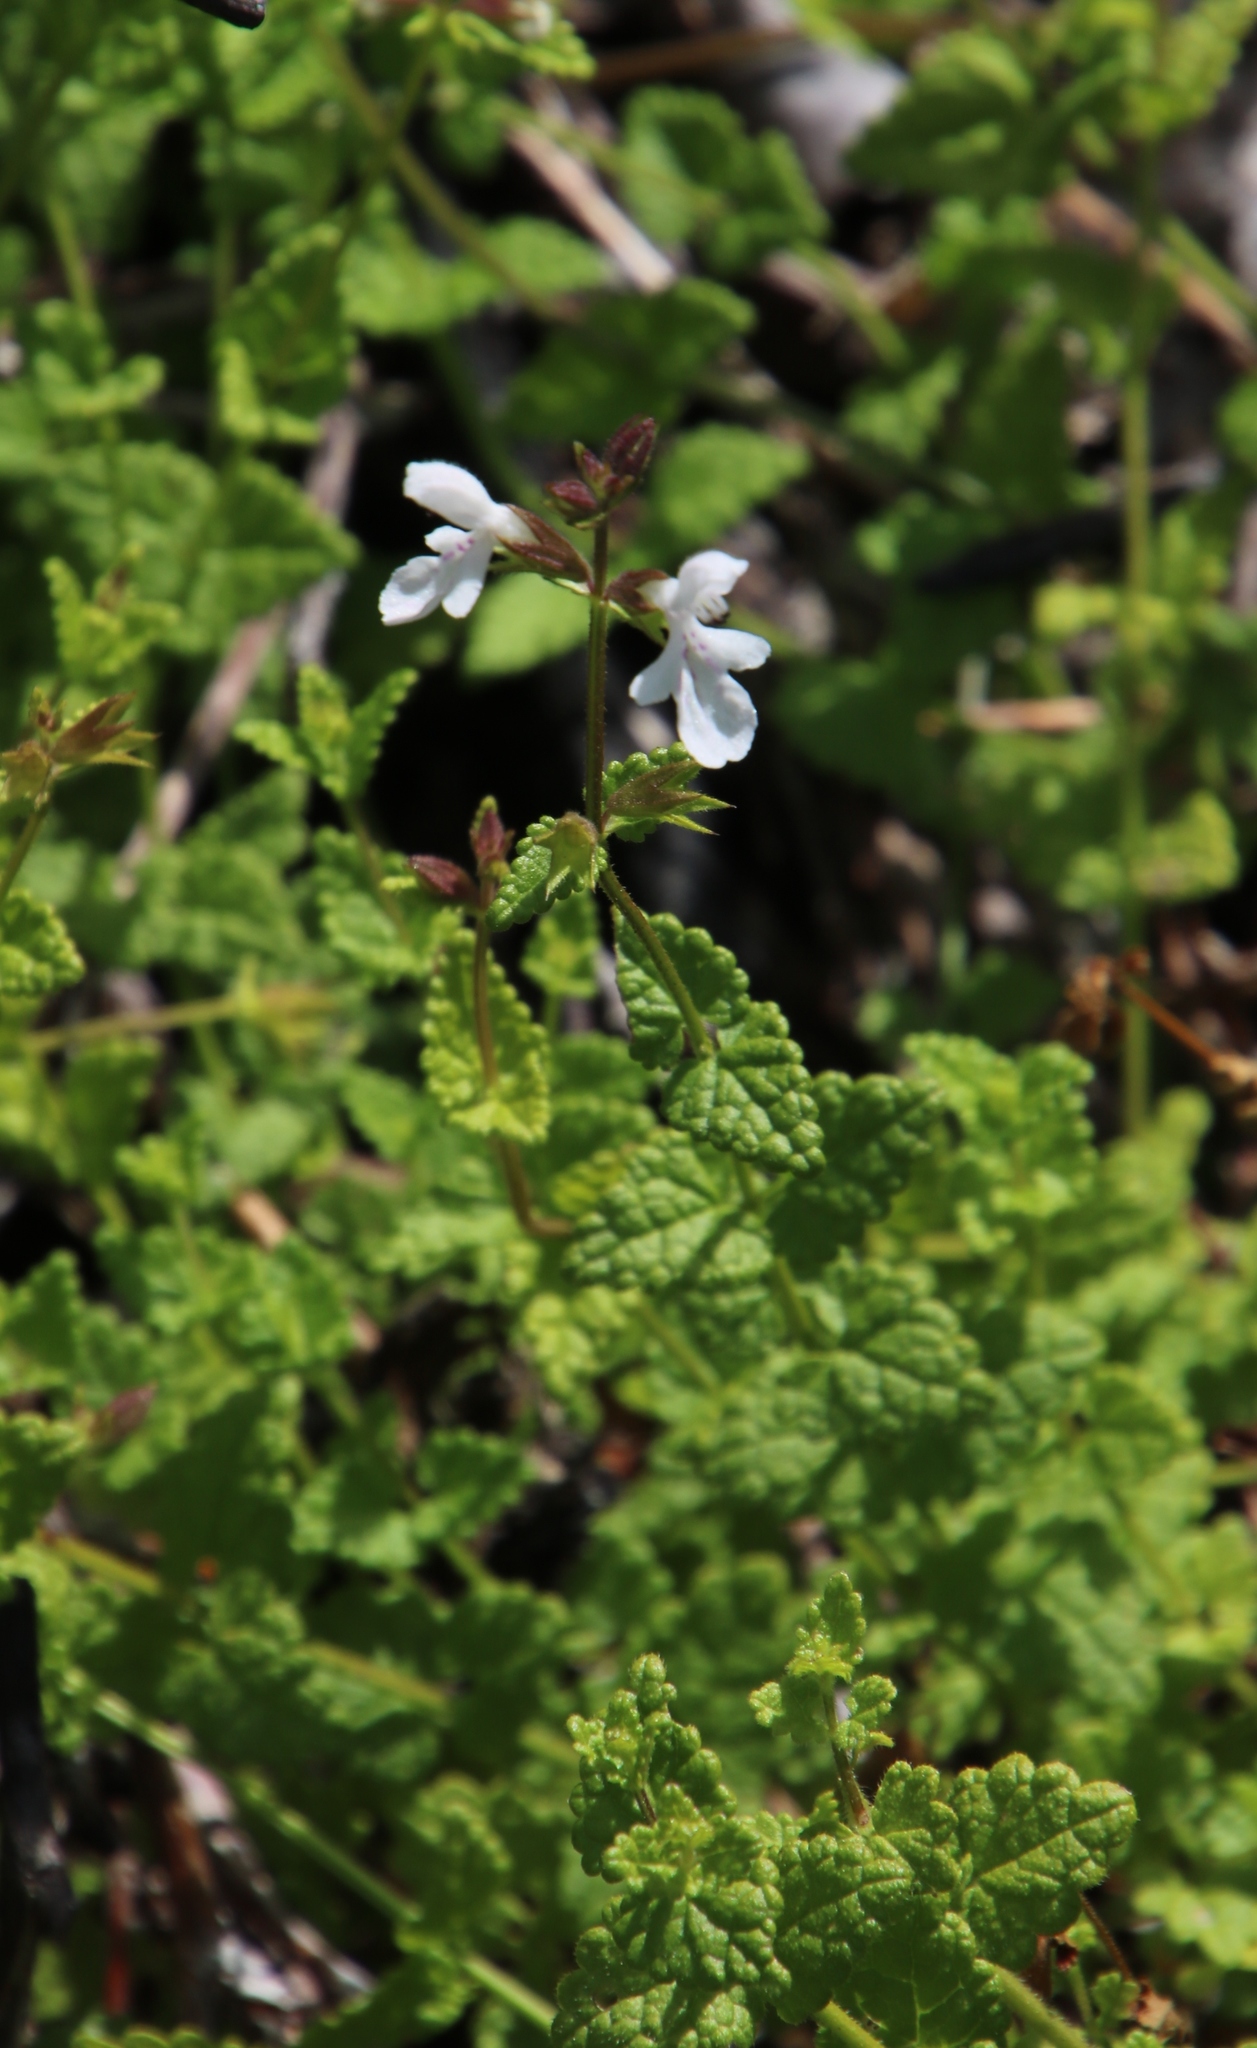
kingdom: Plantae
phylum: Tracheophyta
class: Magnoliopsida
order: Lamiales
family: Lamiaceae
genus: Stachys
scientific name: Stachys aethiopica
